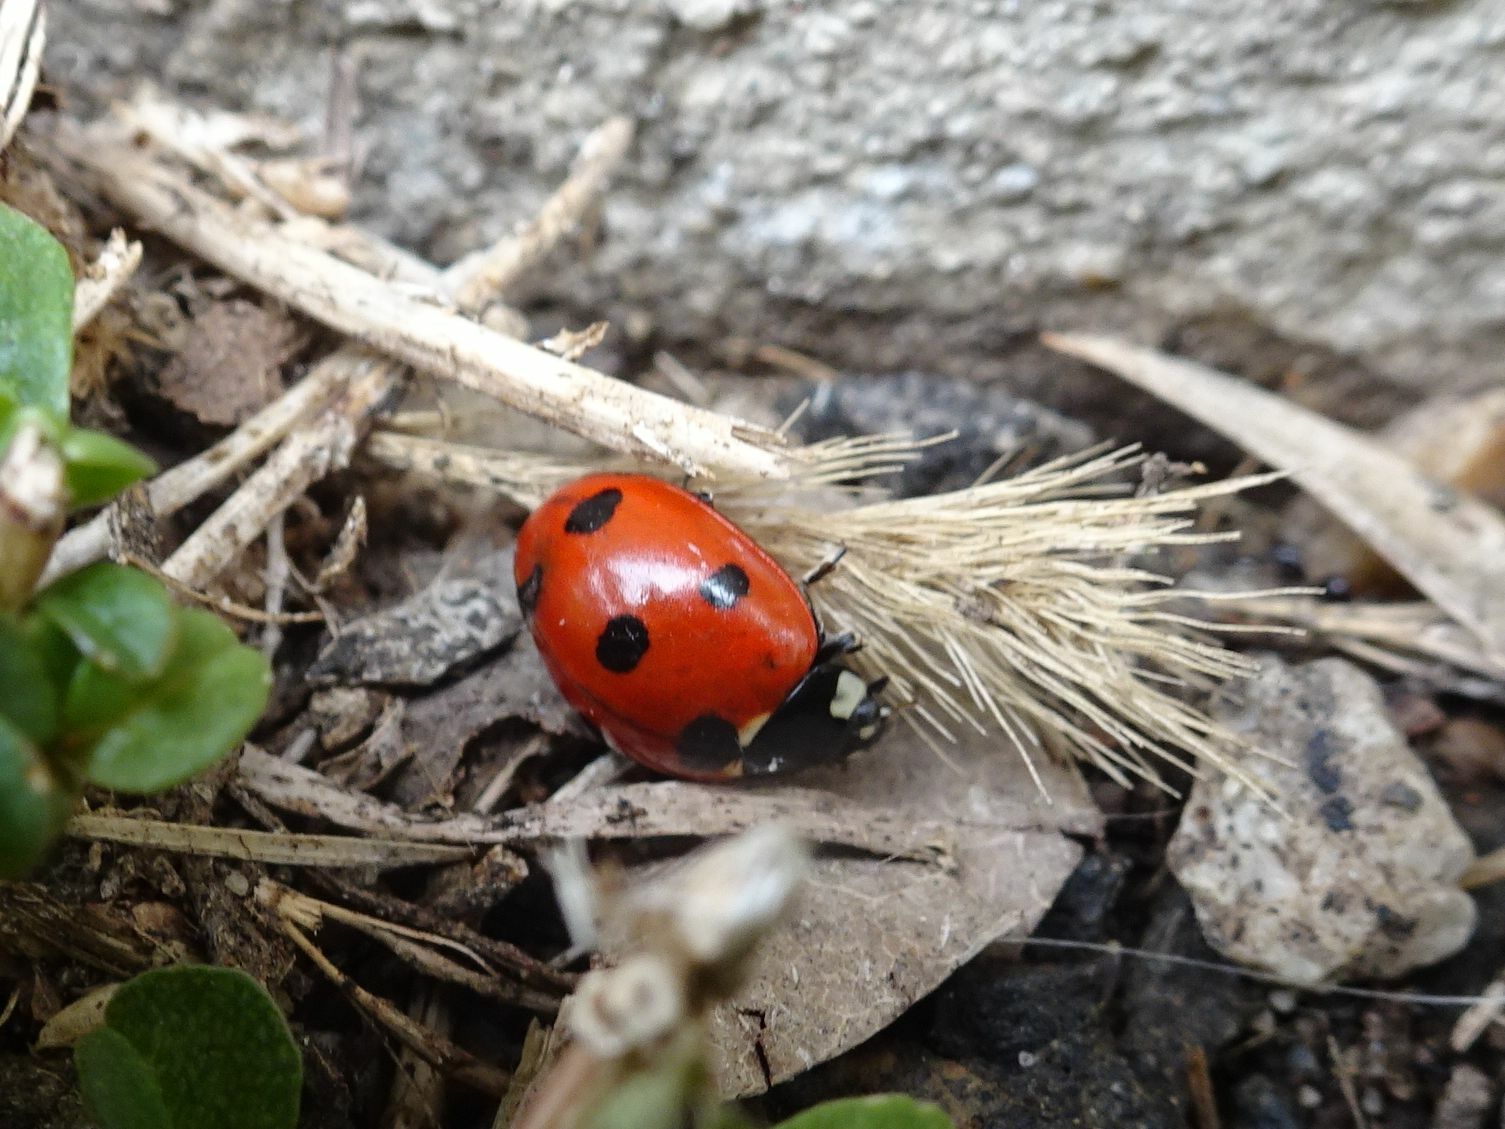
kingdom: Animalia
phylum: Arthropoda
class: Insecta
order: Coleoptera
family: Coccinellidae
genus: Coccinella
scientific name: Coccinella septempunctata
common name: Sevenspotted lady beetle
